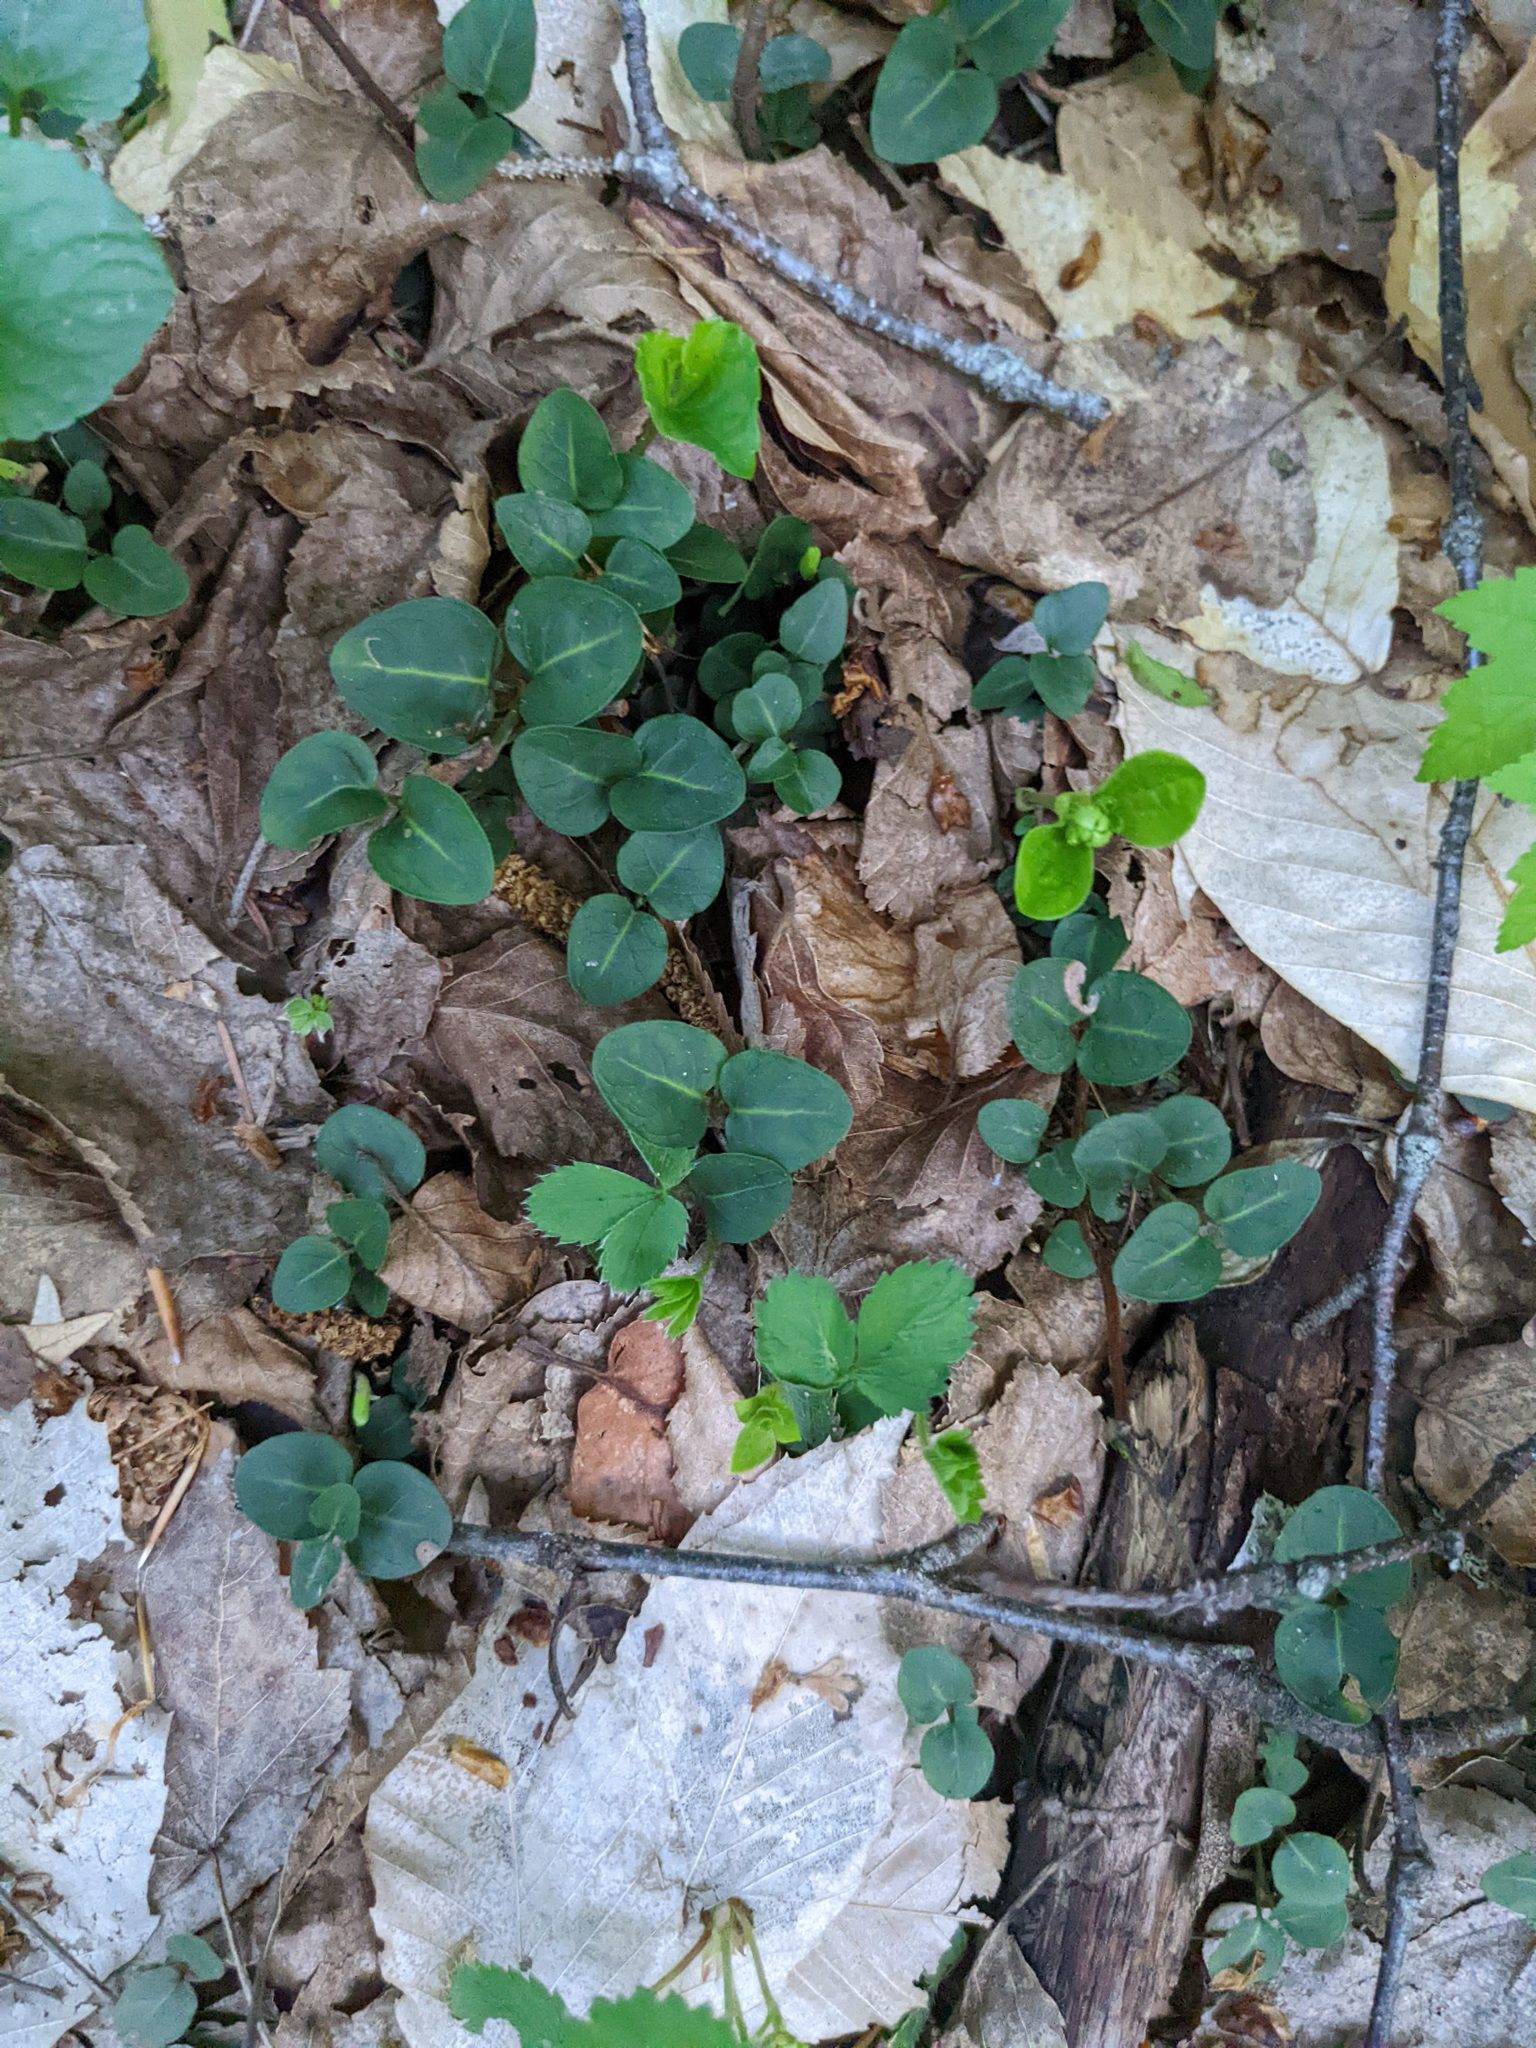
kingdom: Plantae
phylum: Tracheophyta
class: Magnoliopsida
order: Gentianales
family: Rubiaceae
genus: Mitchella
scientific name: Mitchella repens
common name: Partridge-berry
